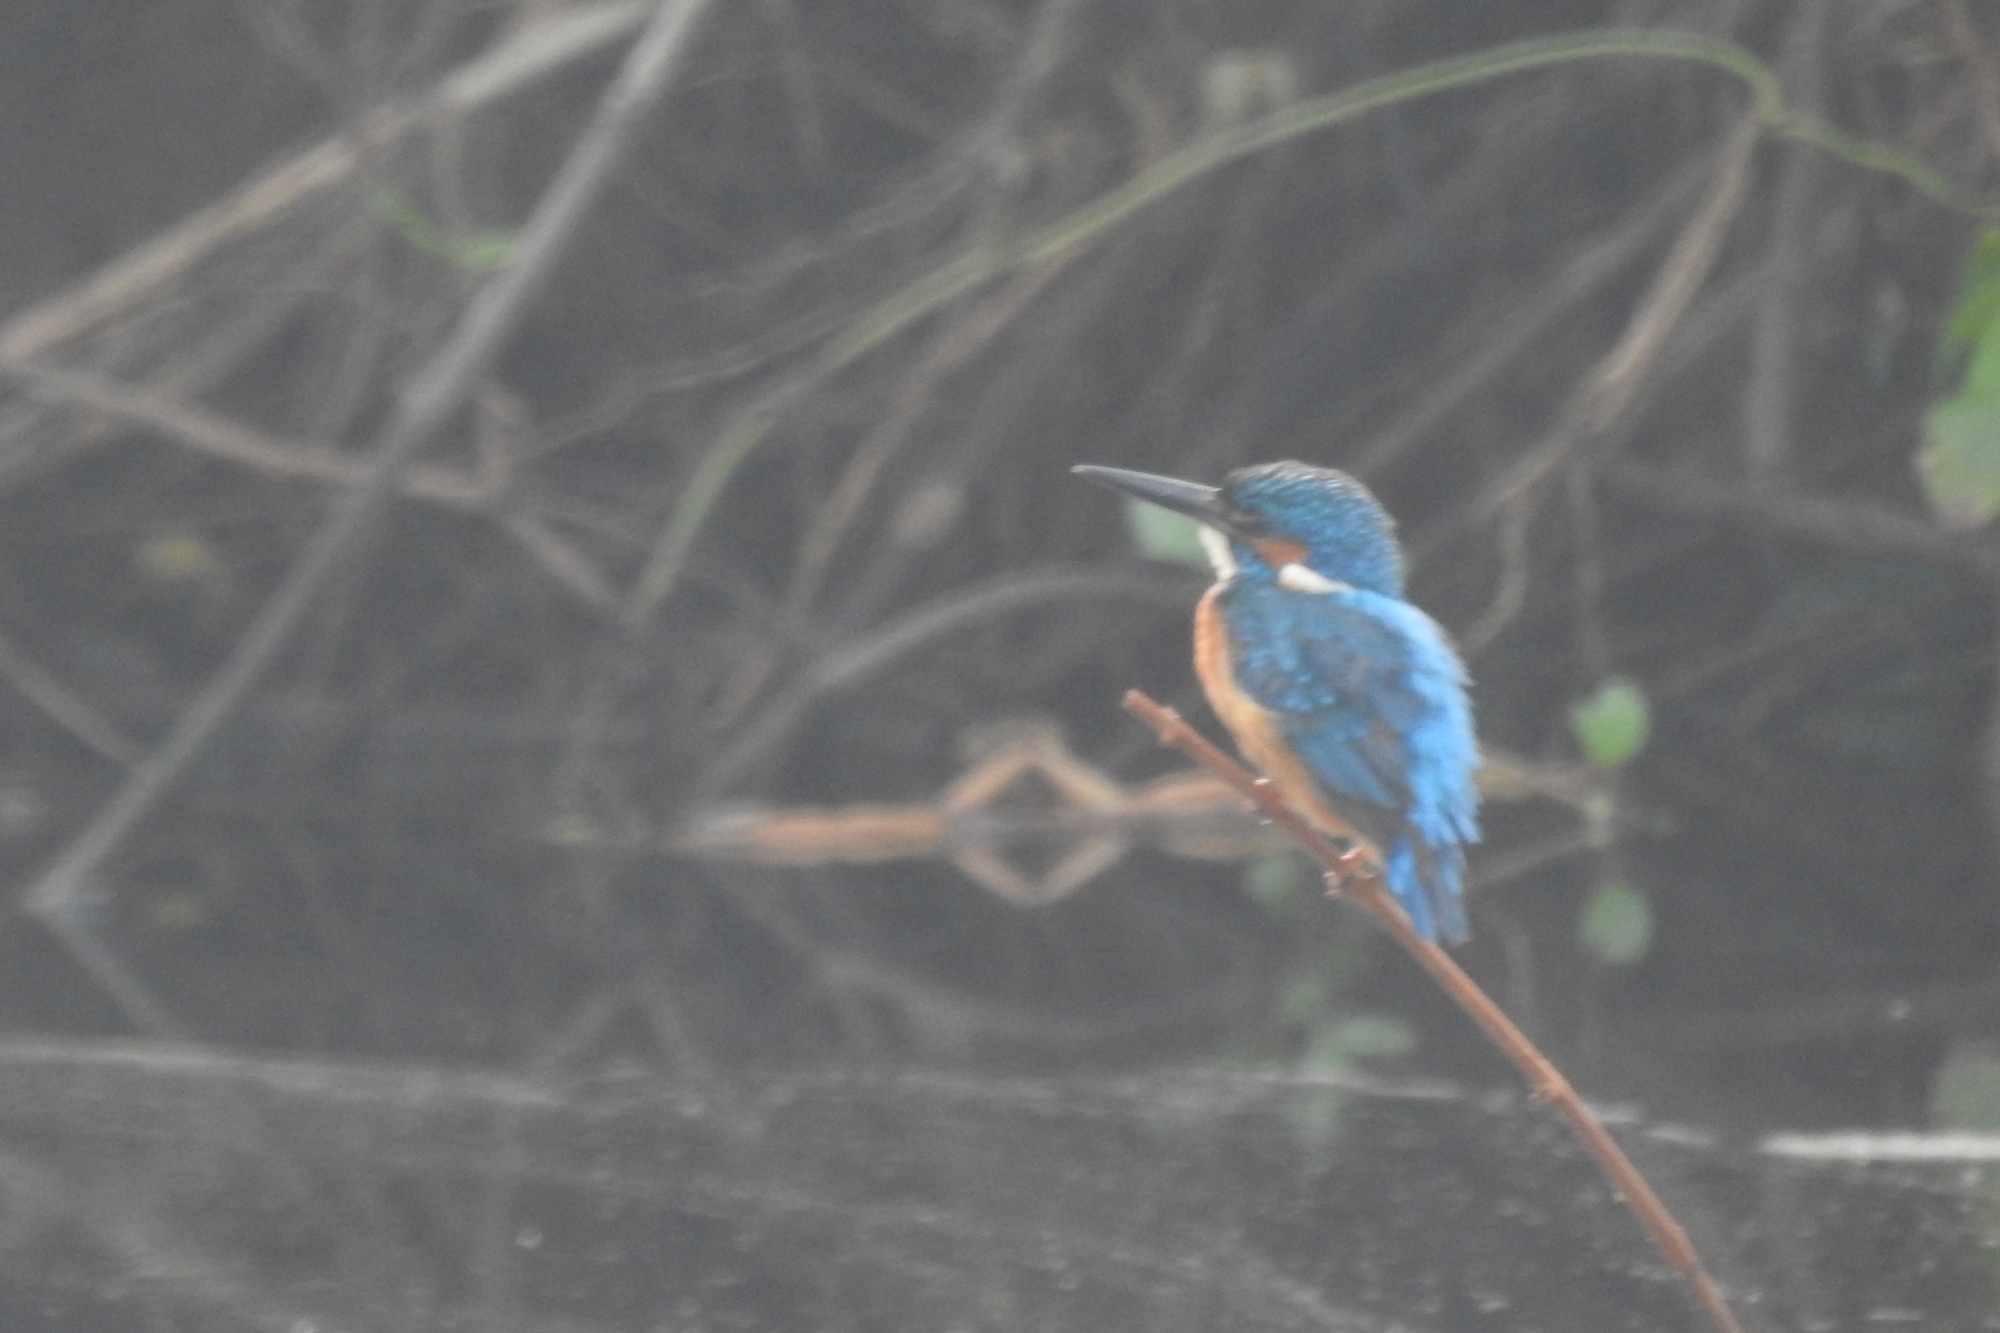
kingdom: Animalia
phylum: Chordata
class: Aves
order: Coraciiformes
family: Alcedinidae
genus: Alcedo
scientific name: Alcedo atthis
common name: Common kingfisher
